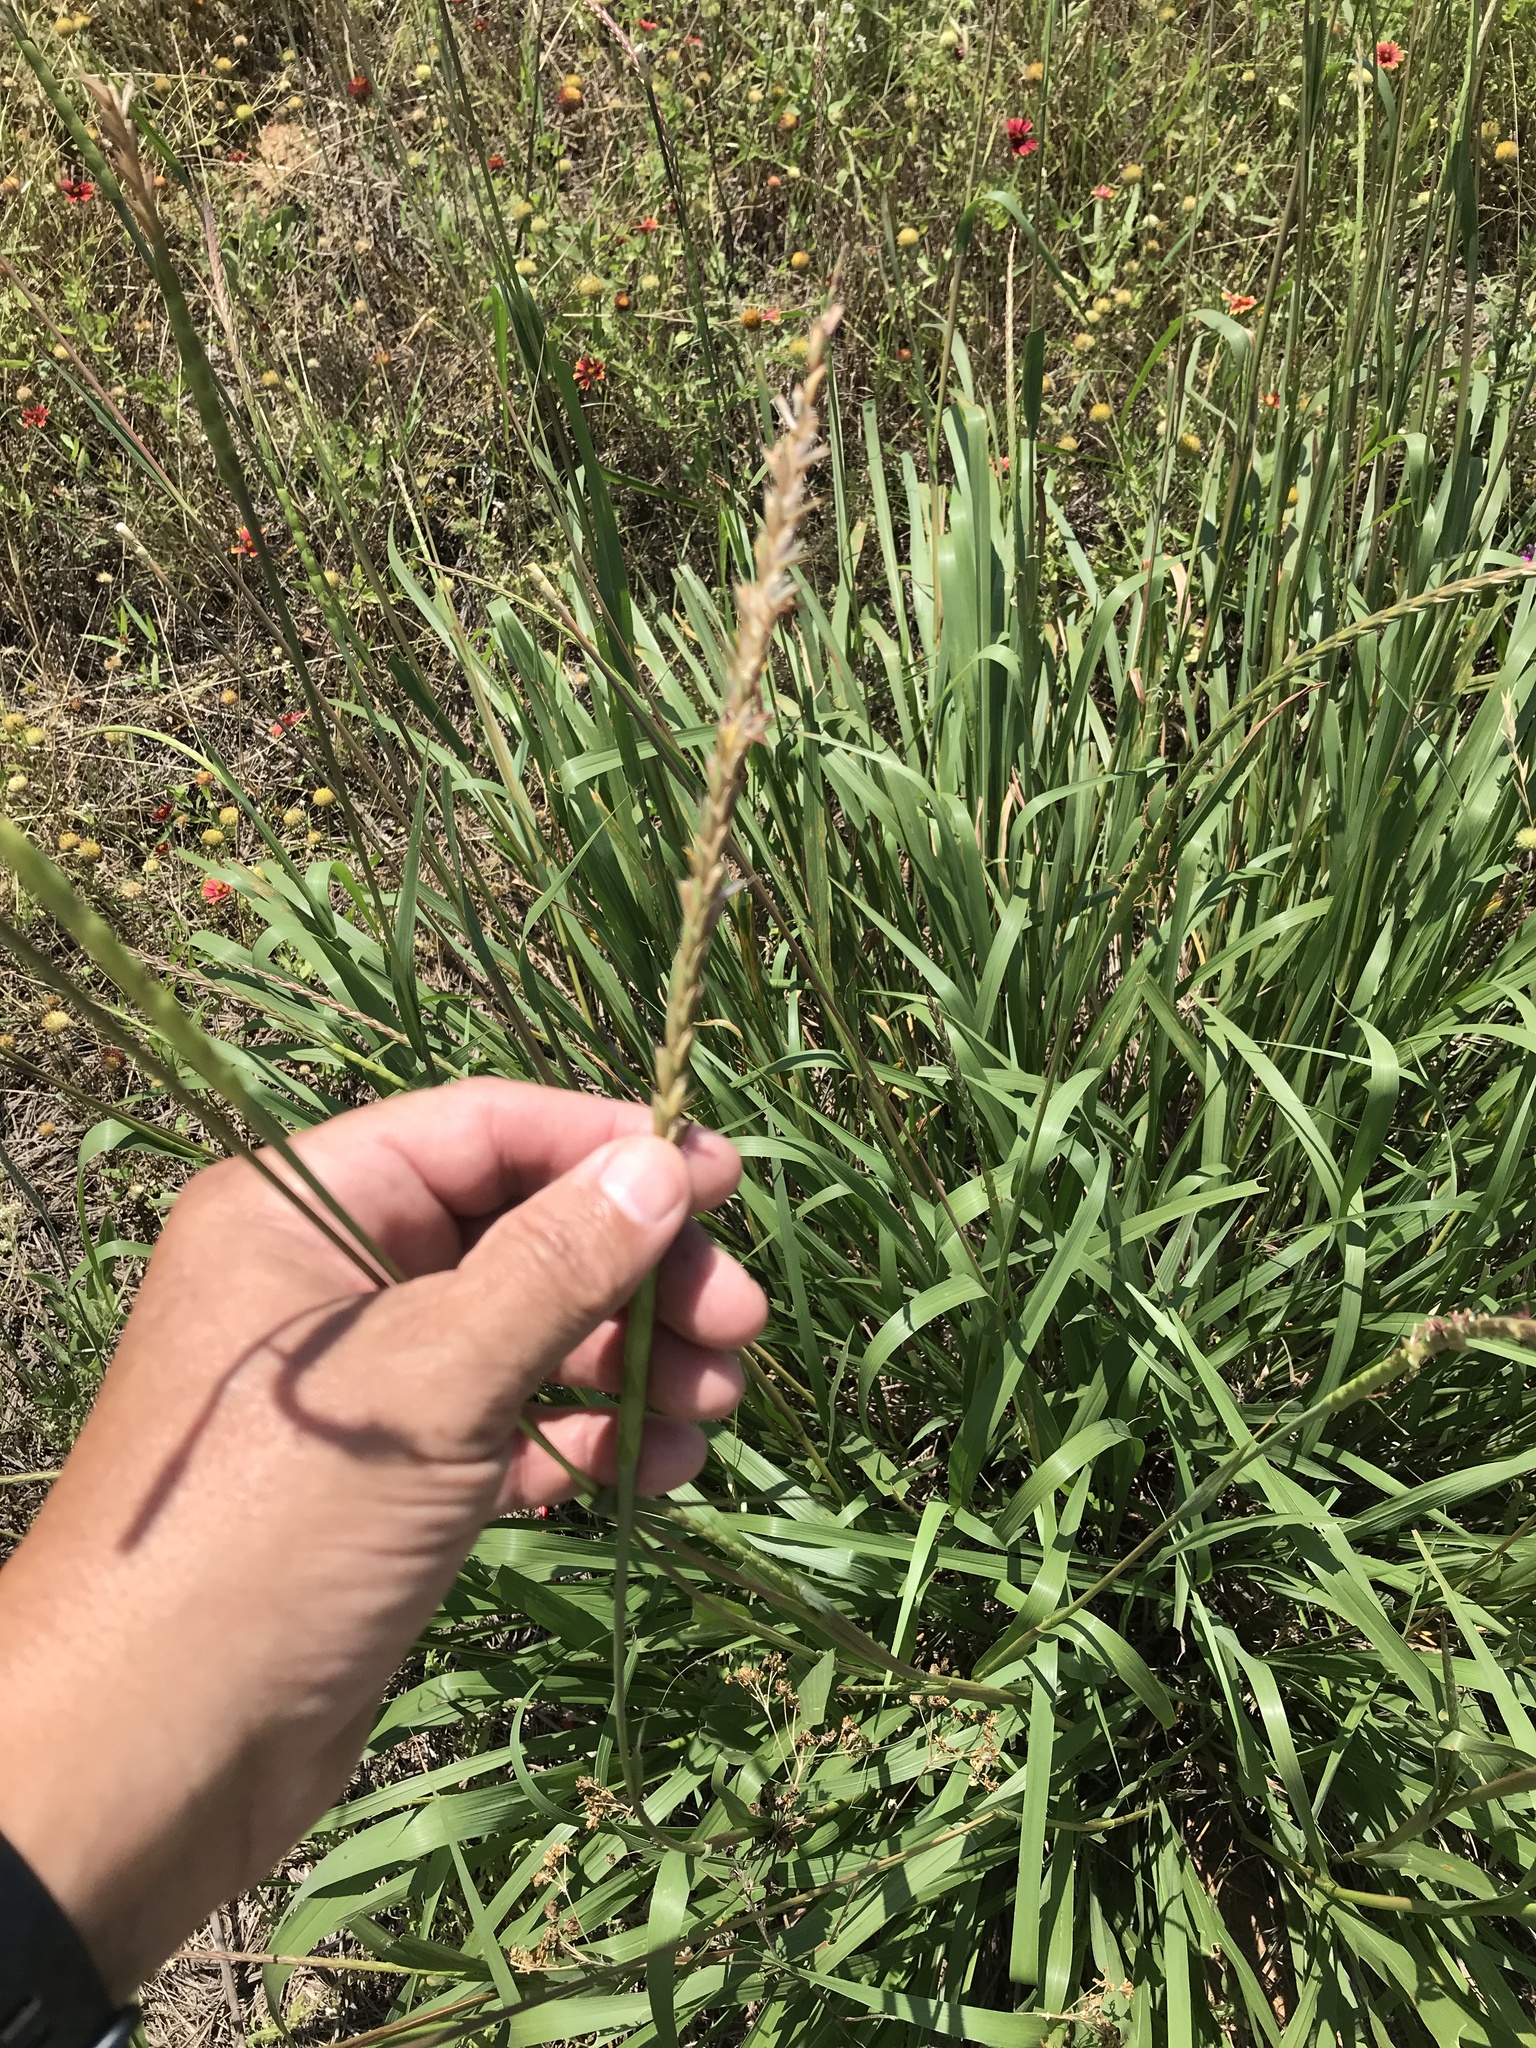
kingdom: Plantae
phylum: Tracheophyta
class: Liliopsida
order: Poales
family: Poaceae
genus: Tripsacum
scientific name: Tripsacum dactyloides
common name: Buffalo-grass
